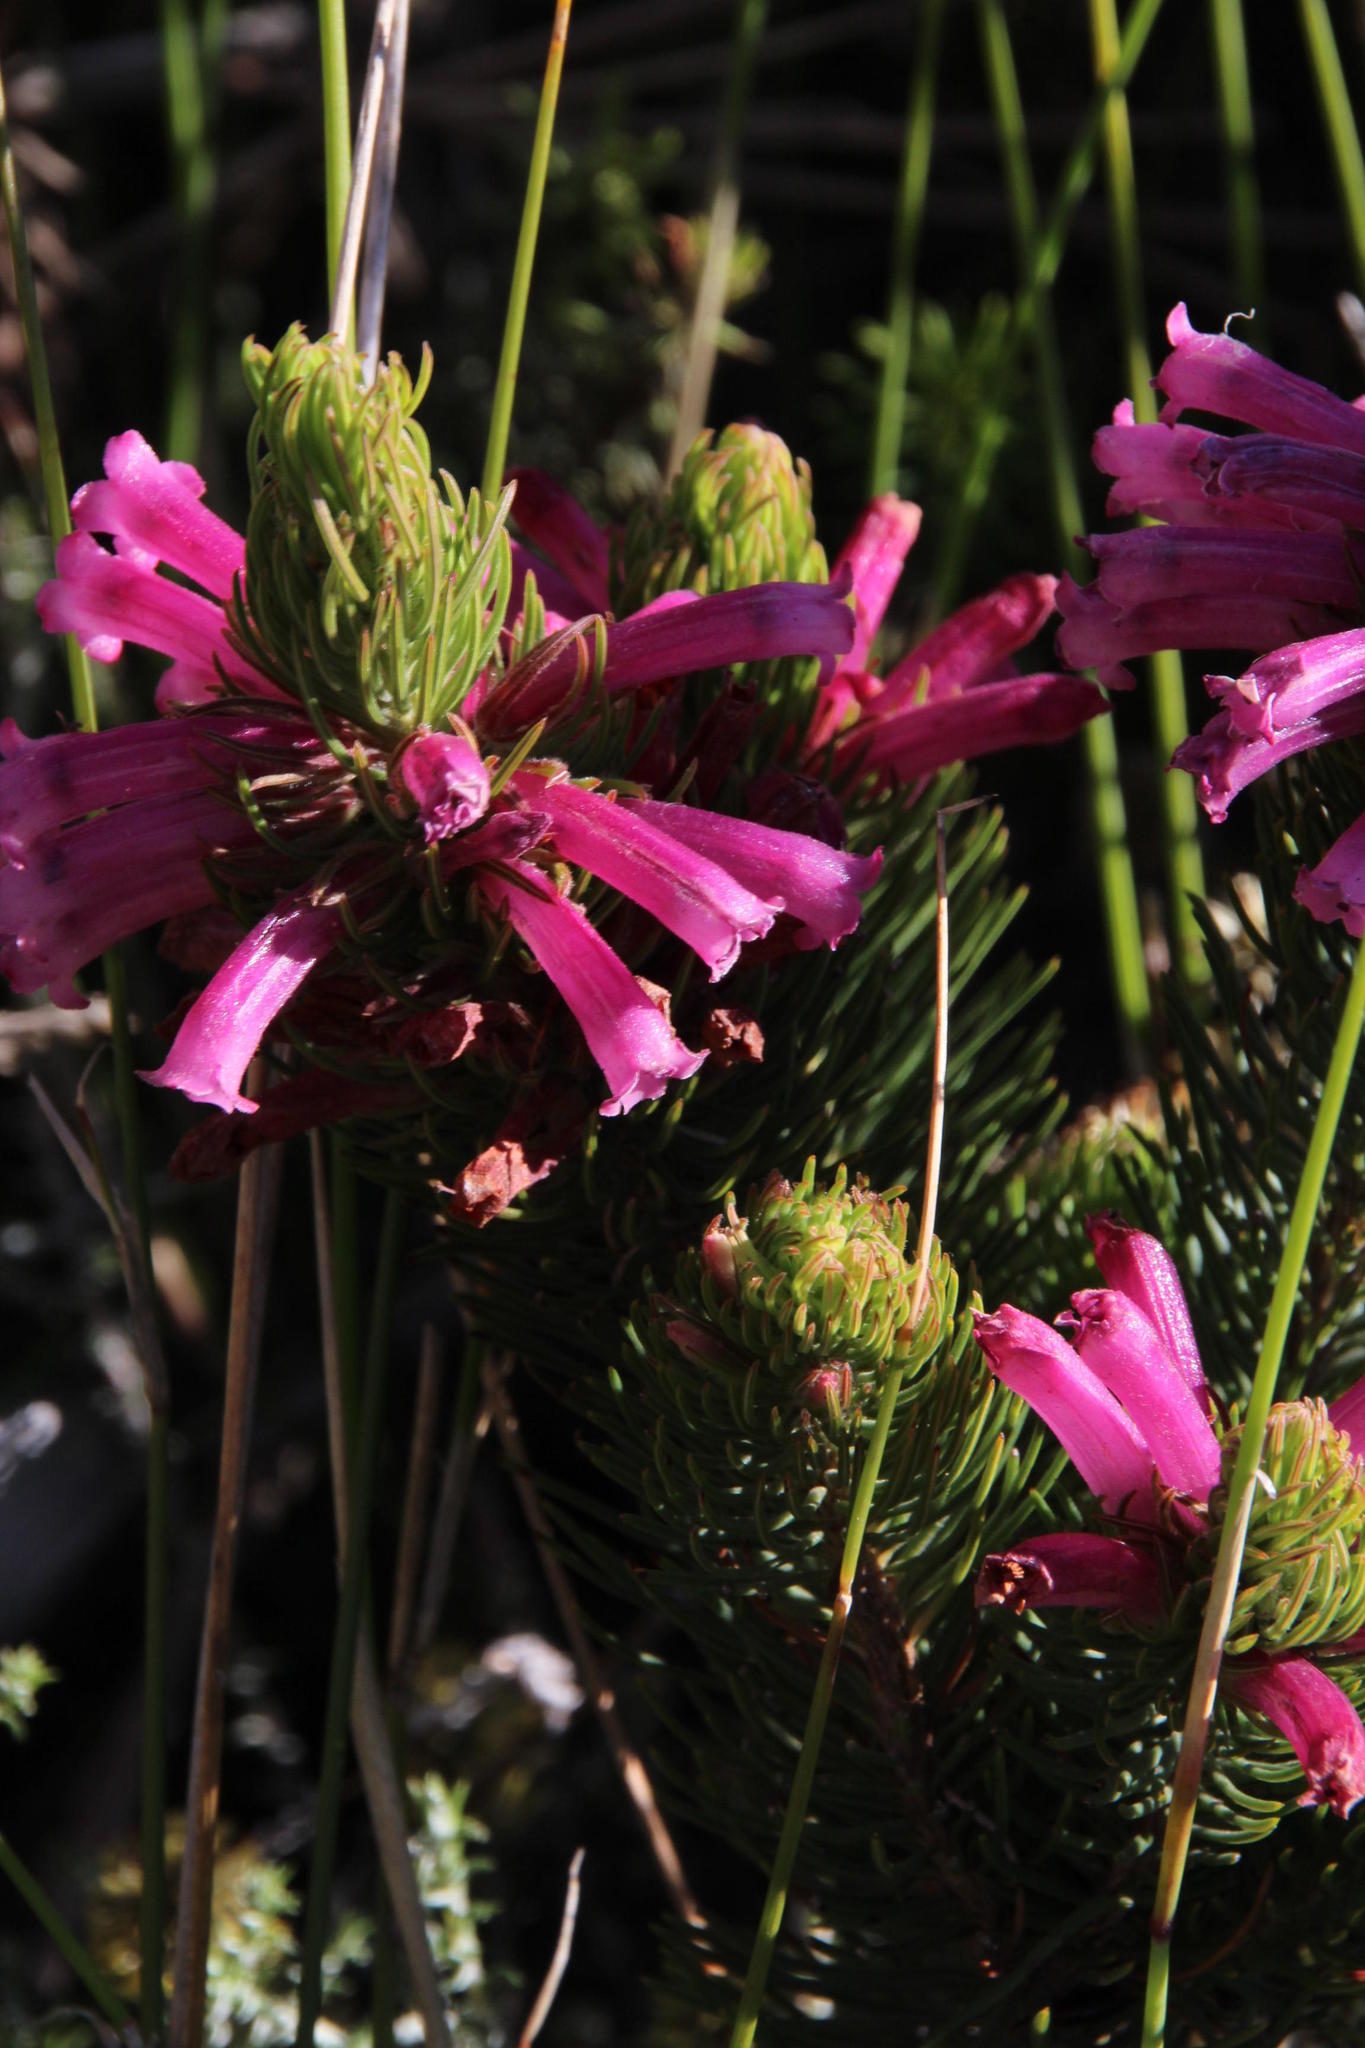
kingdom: Plantae
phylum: Tracheophyta
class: Magnoliopsida
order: Ericales
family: Ericaceae
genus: Erica
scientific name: Erica viscaria
